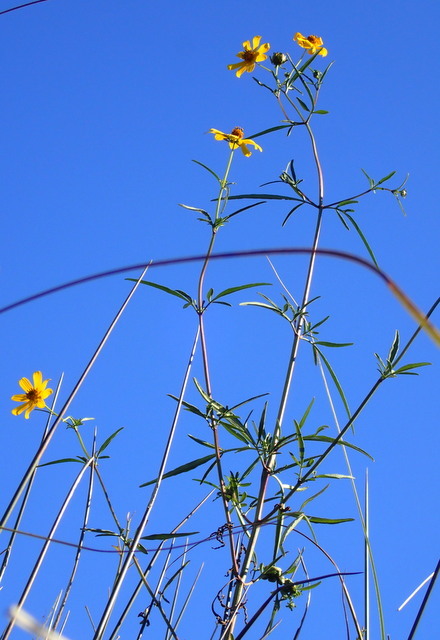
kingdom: Plantae
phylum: Tracheophyta
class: Magnoliopsida
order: Asterales
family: Asteraceae
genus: Bidens
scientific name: Bidens aristosa
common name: Western tickseed
